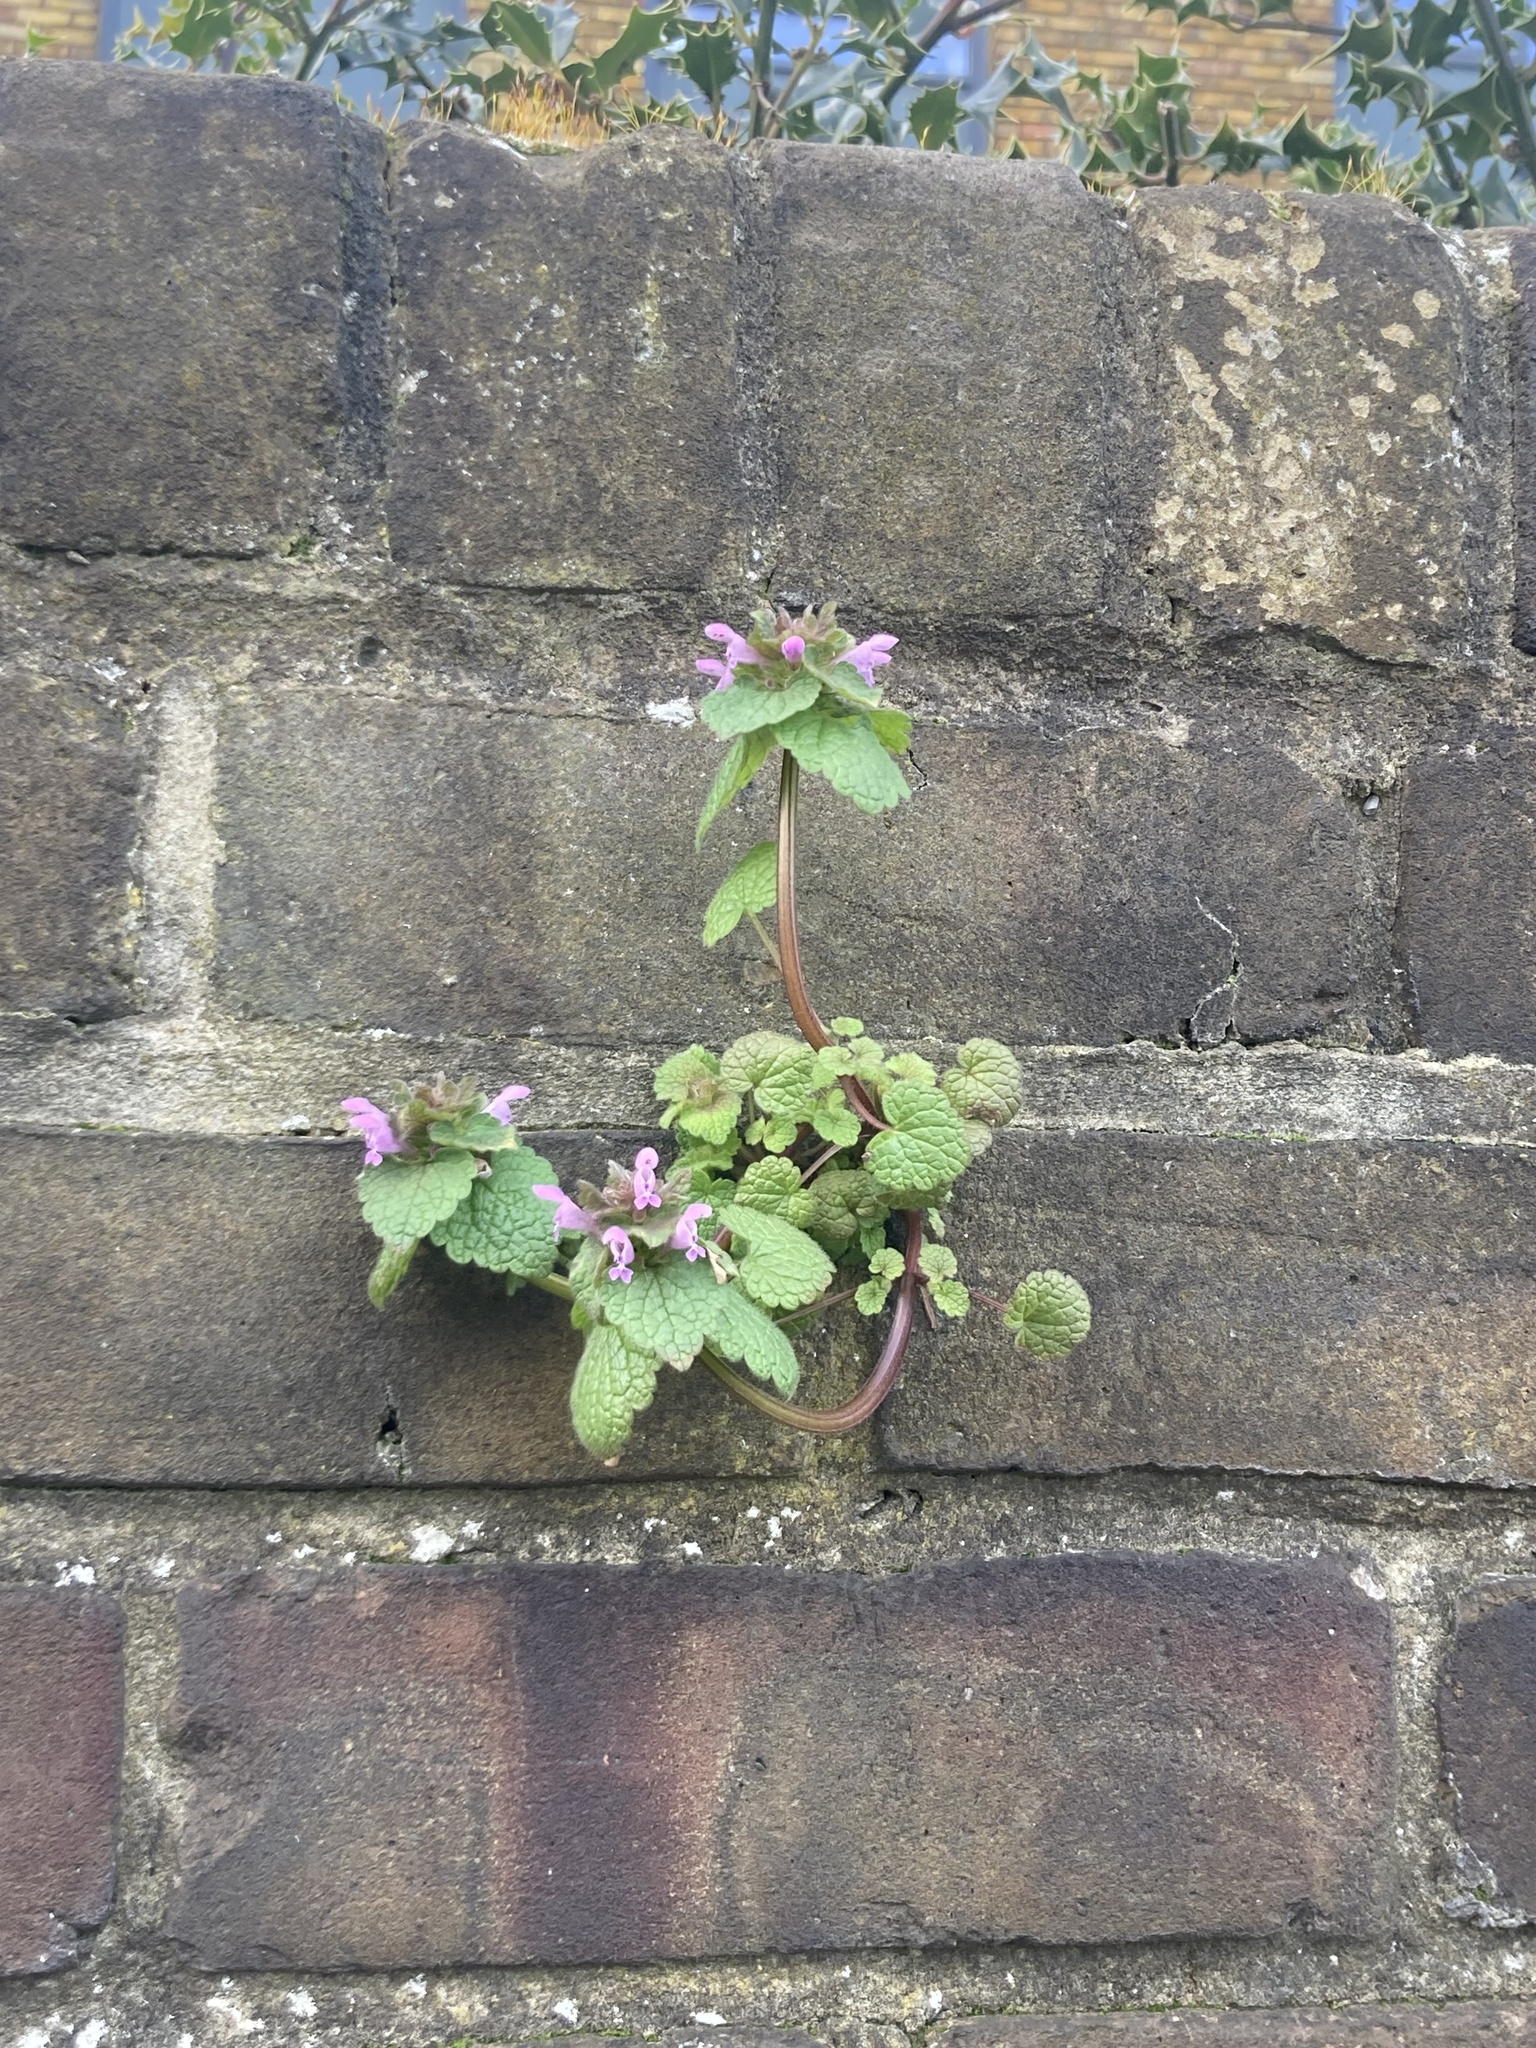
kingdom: Plantae
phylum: Tracheophyta
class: Magnoliopsida
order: Lamiales
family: Lamiaceae
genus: Lamium
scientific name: Lamium purpureum
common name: Red dead-nettle
